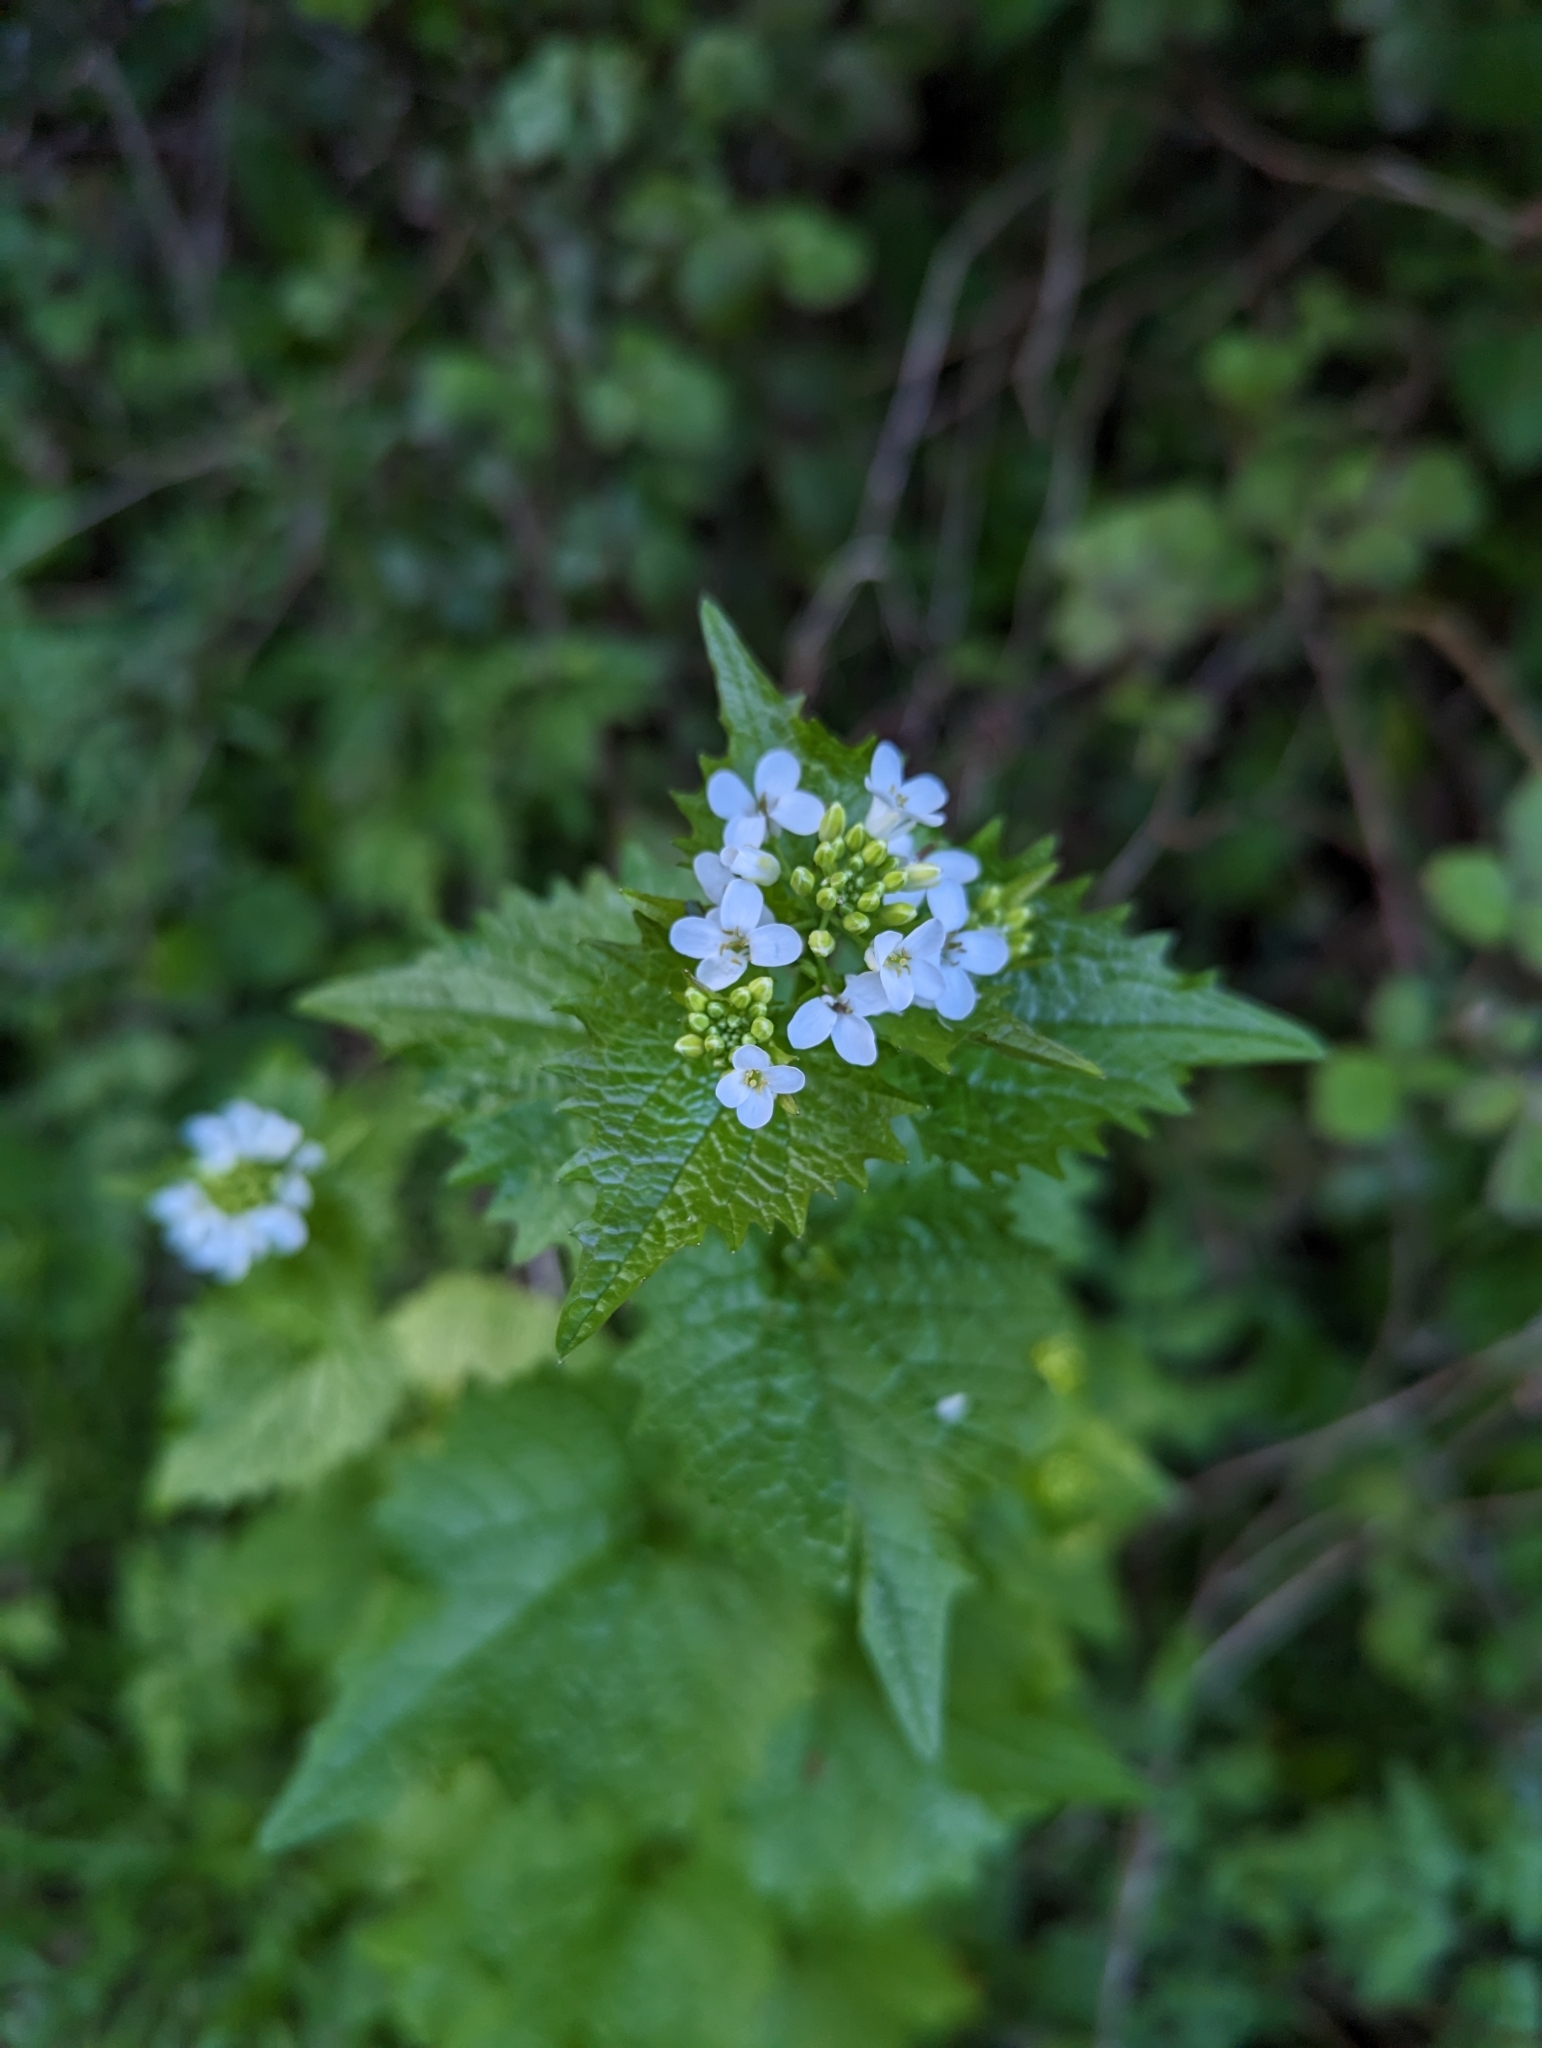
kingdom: Plantae
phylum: Tracheophyta
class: Magnoliopsida
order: Brassicales
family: Brassicaceae
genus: Alliaria
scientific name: Alliaria petiolata
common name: Garlic mustard
